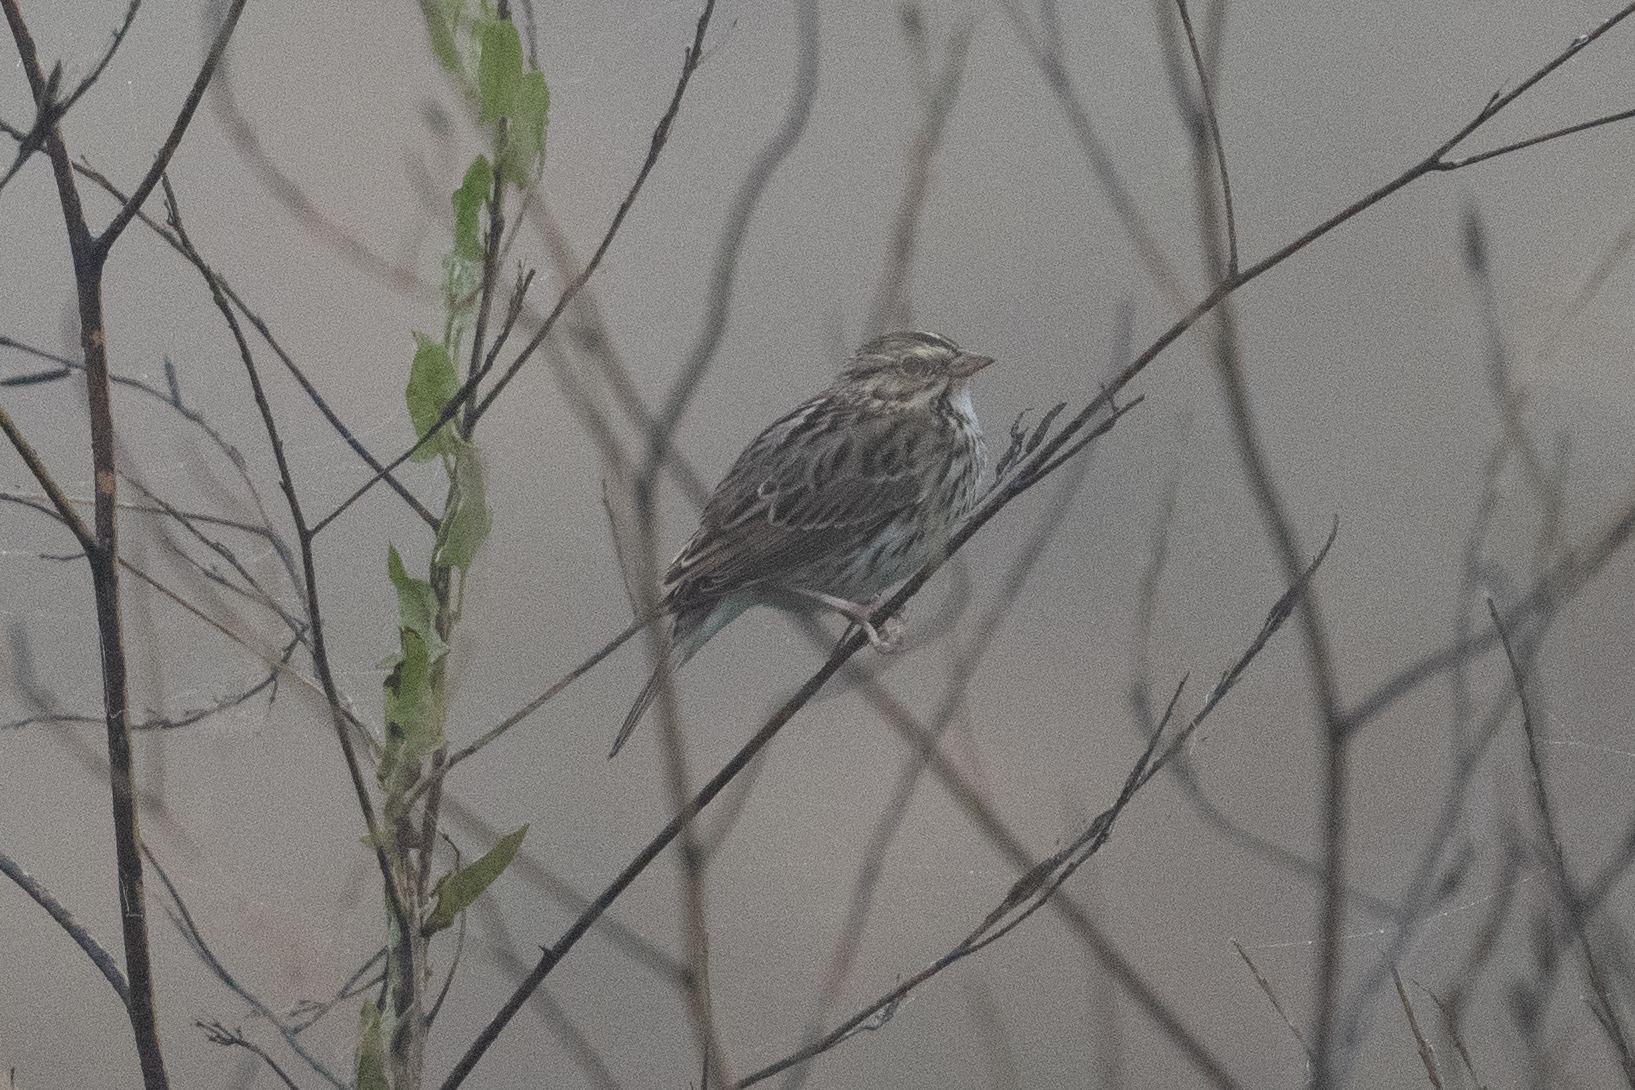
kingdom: Animalia
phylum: Chordata
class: Aves
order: Passeriformes
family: Passerellidae
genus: Passerculus
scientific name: Passerculus sandwichensis
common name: Savannah sparrow
